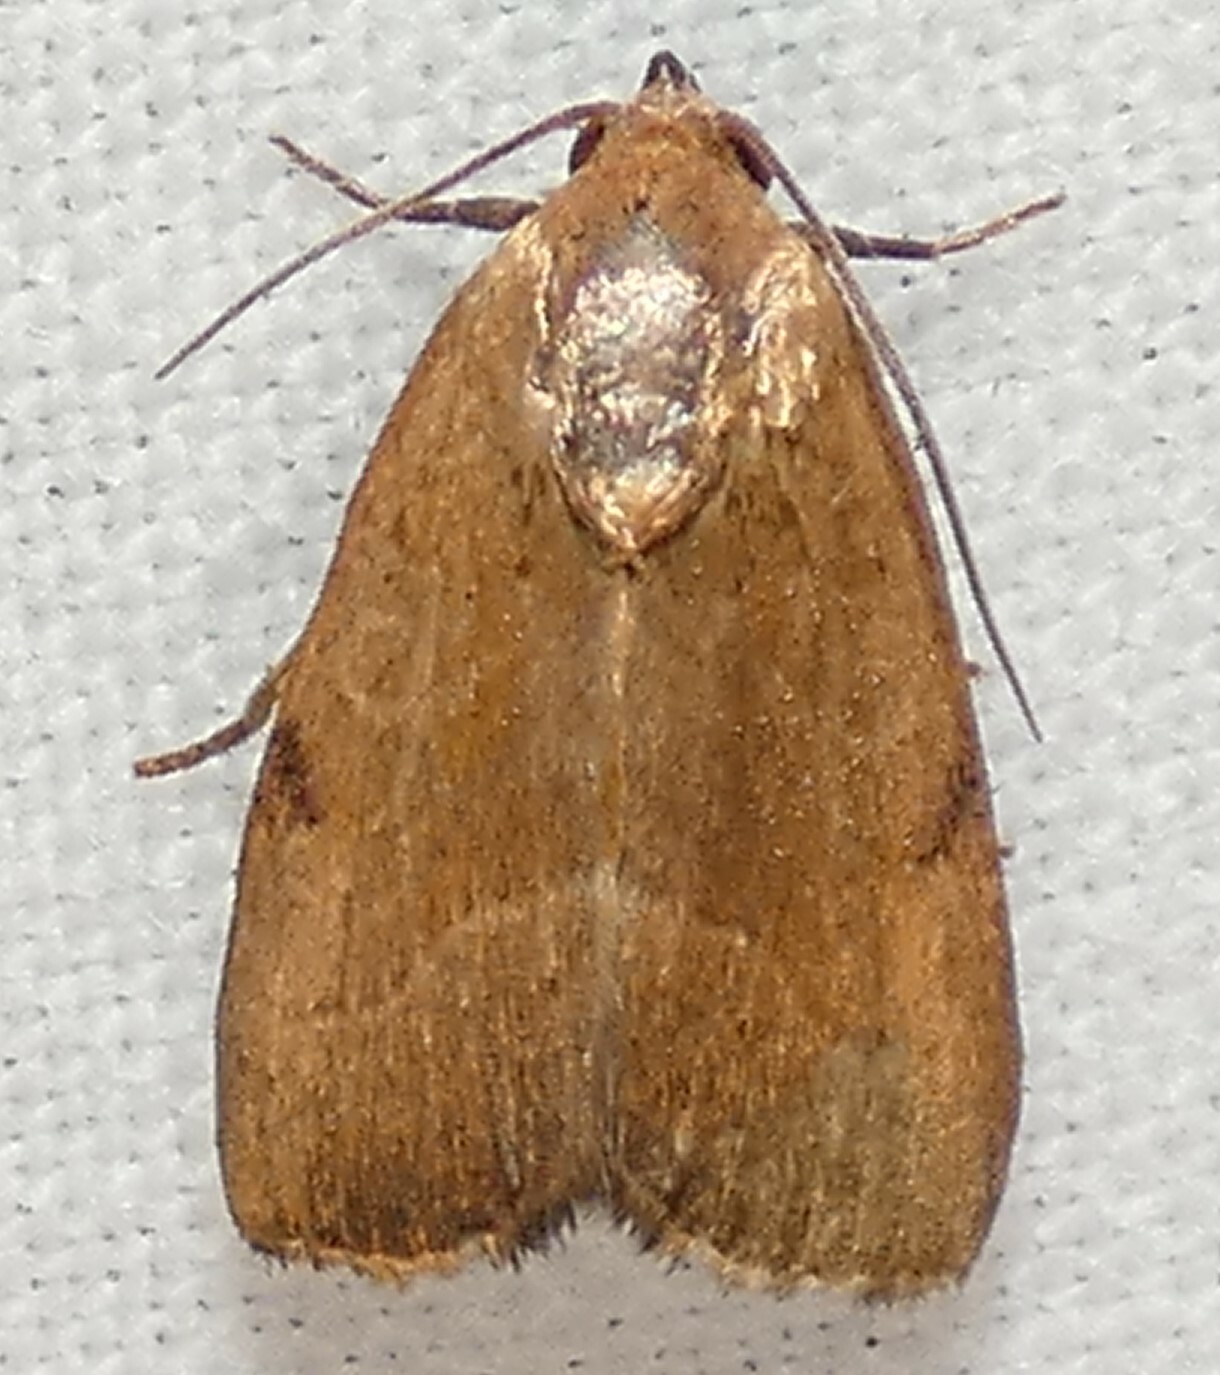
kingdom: Animalia
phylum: Arthropoda
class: Insecta
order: Lepidoptera
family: Noctuidae
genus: Galgula
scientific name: Galgula partita
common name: Wedgeling
